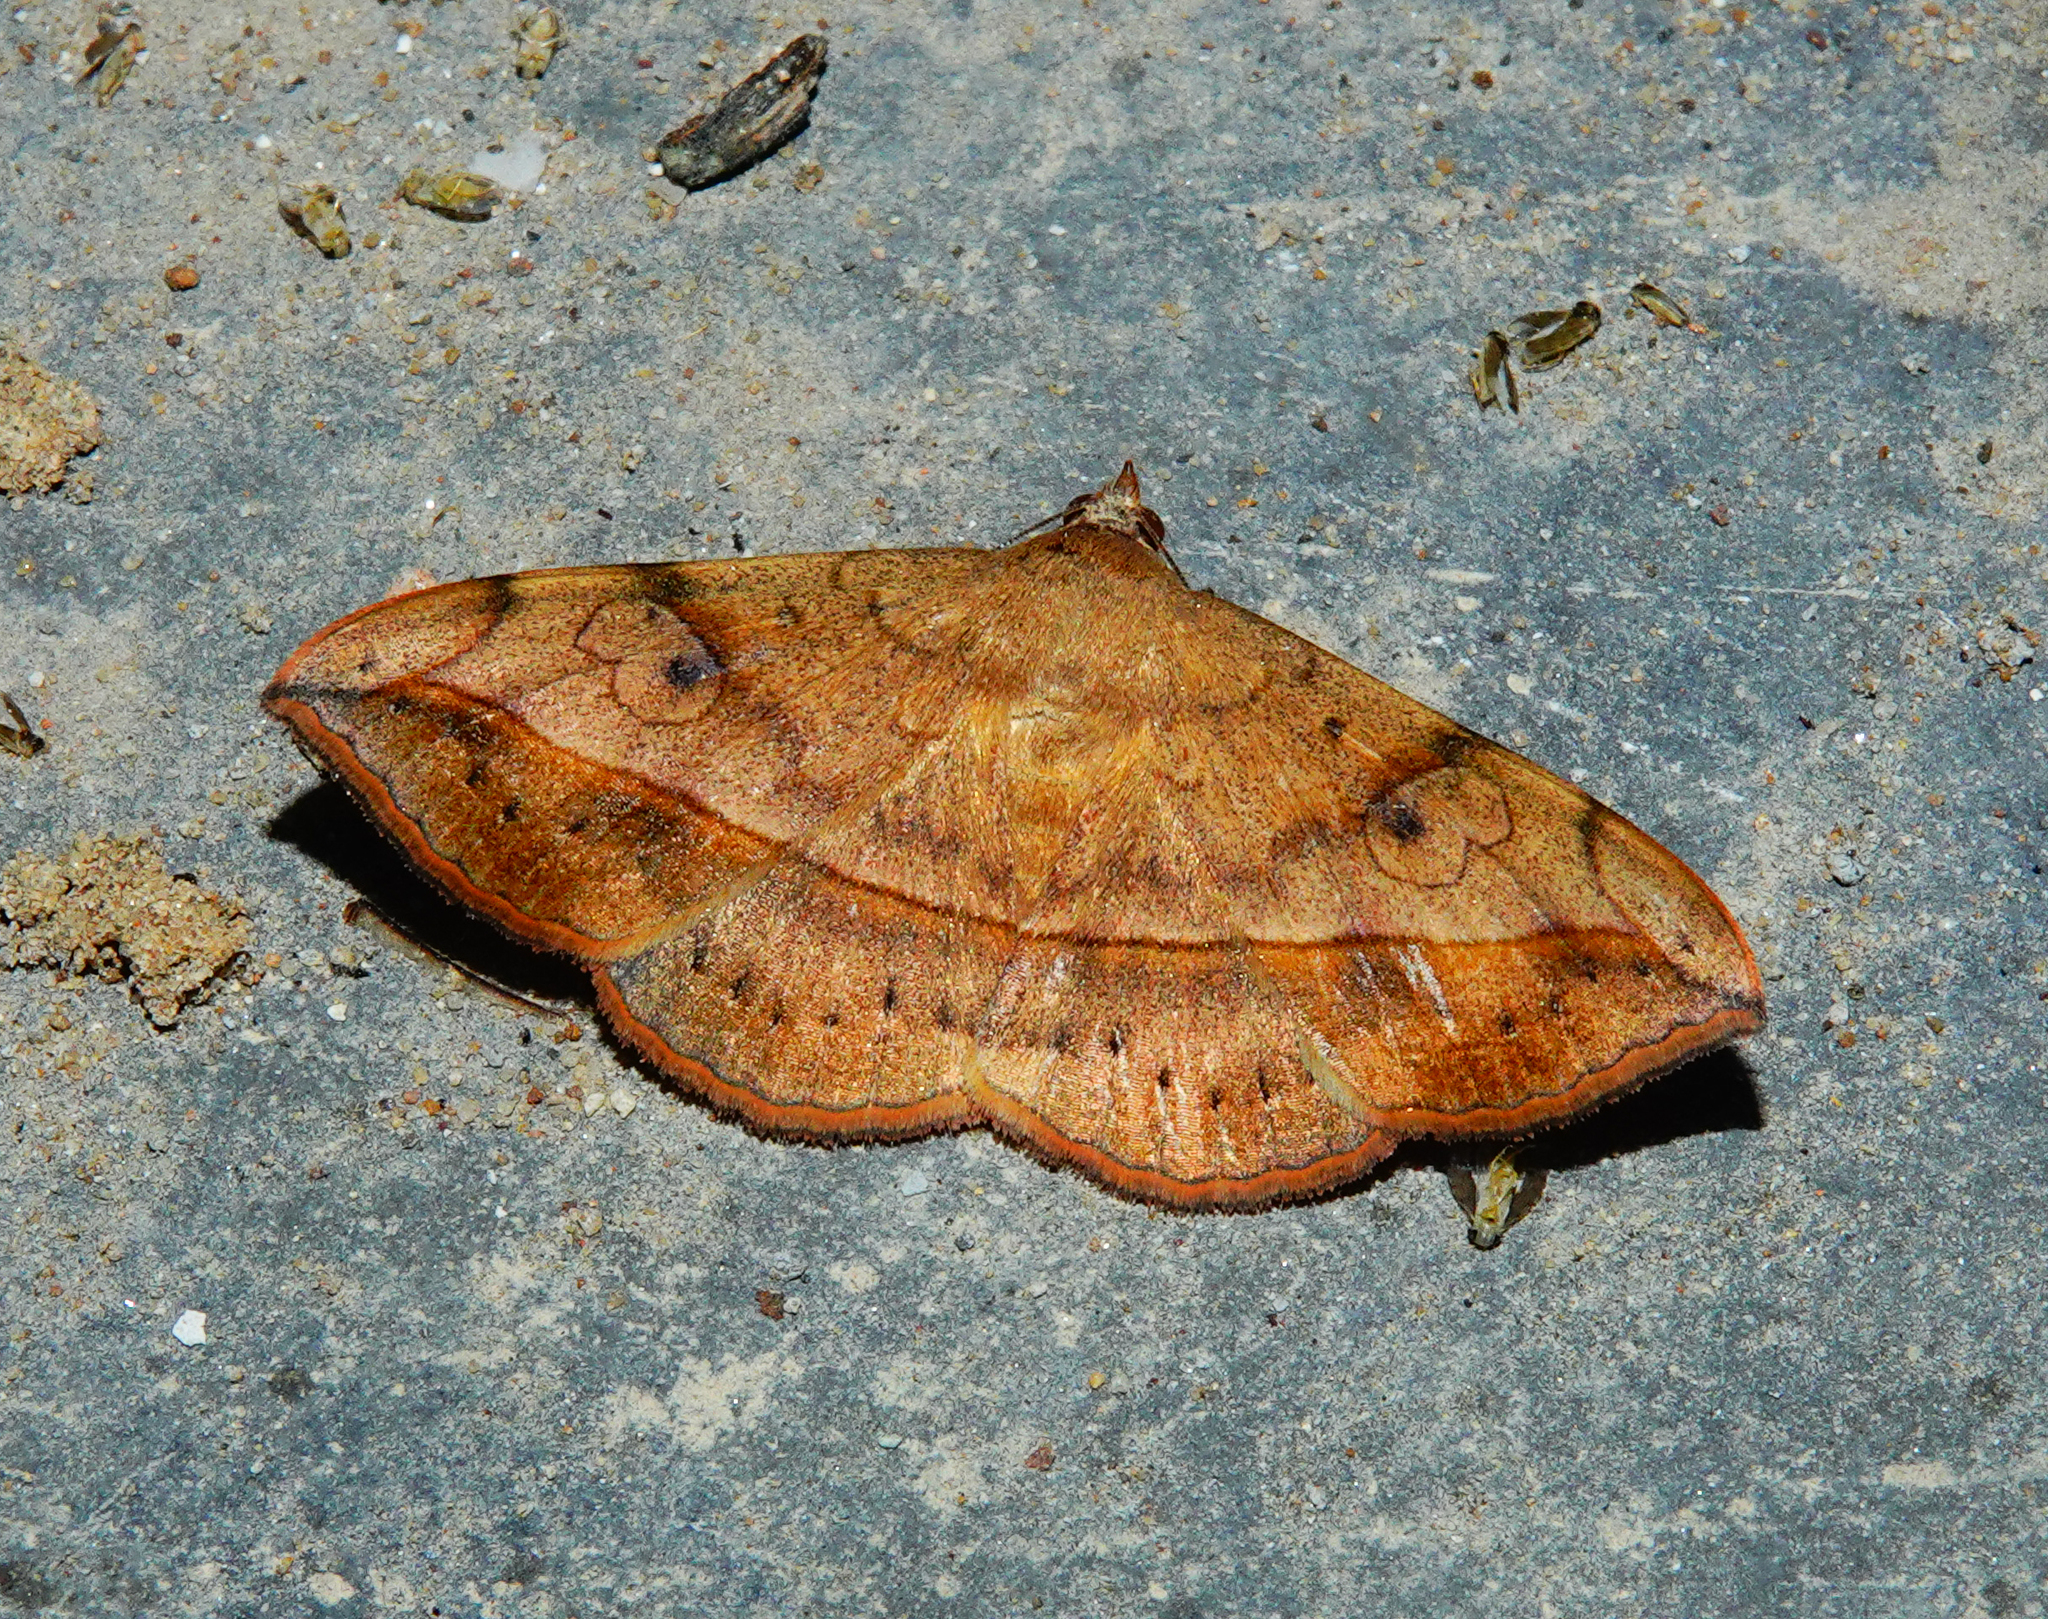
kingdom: Animalia
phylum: Arthropoda
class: Insecta
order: Lepidoptera
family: Erebidae
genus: Anticarsia
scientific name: Anticarsia irrorata
